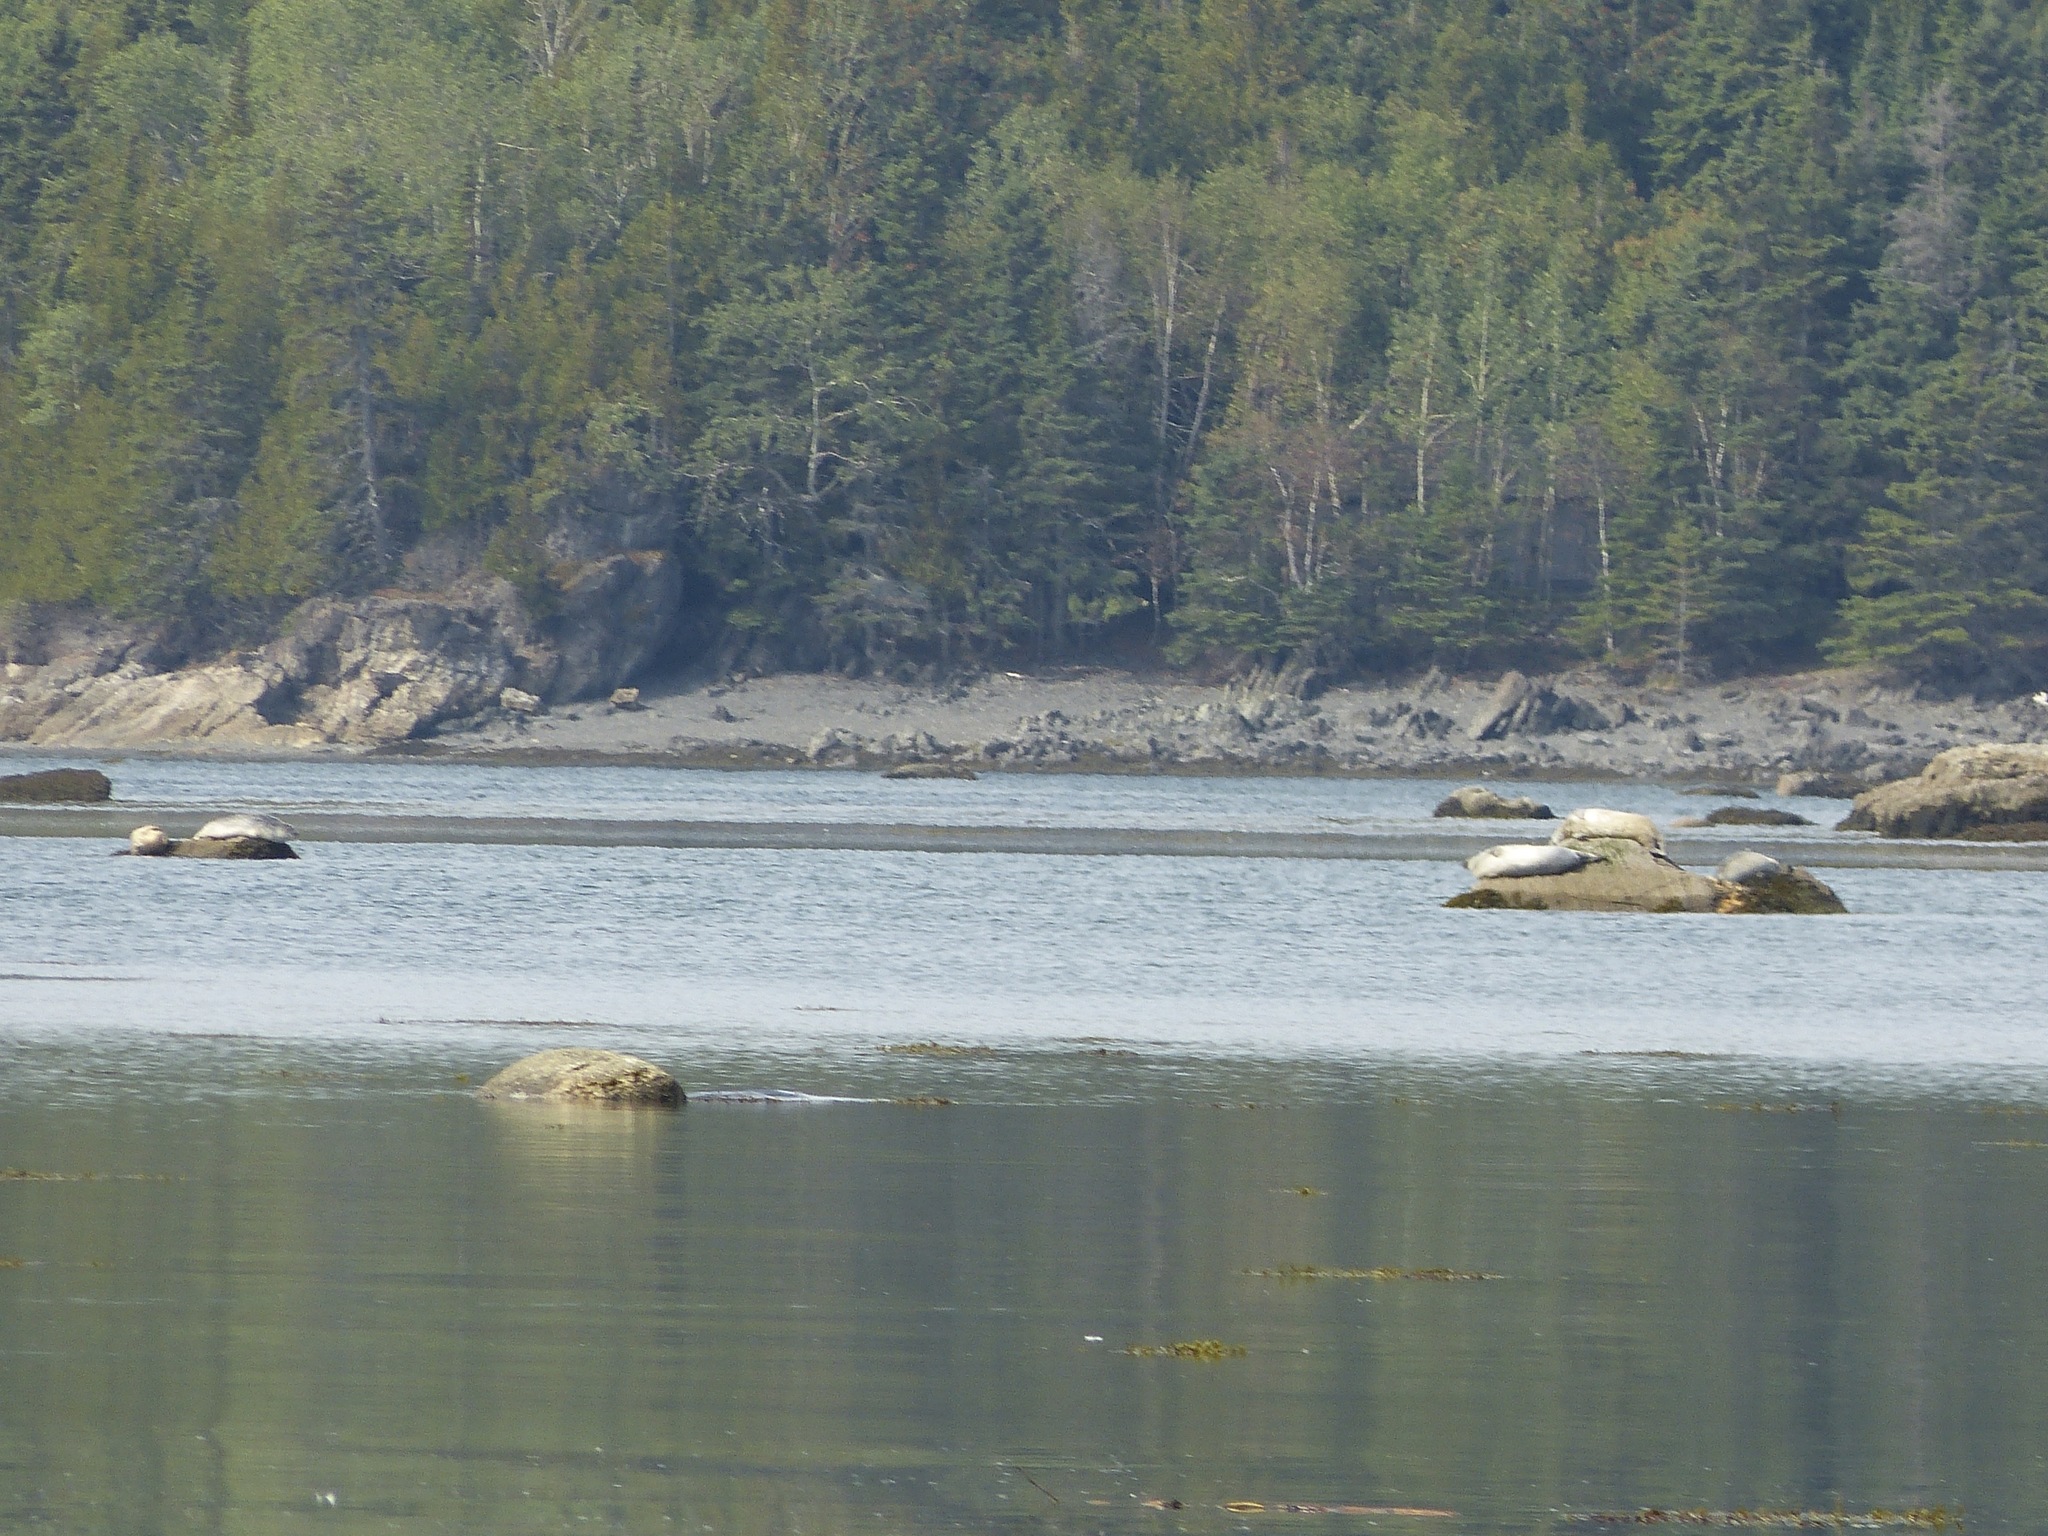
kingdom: Animalia
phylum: Chordata
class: Mammalia
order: Carnivora
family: Phocidae
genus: Phoca
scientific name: Phoca vitulina
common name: Harbor seal
